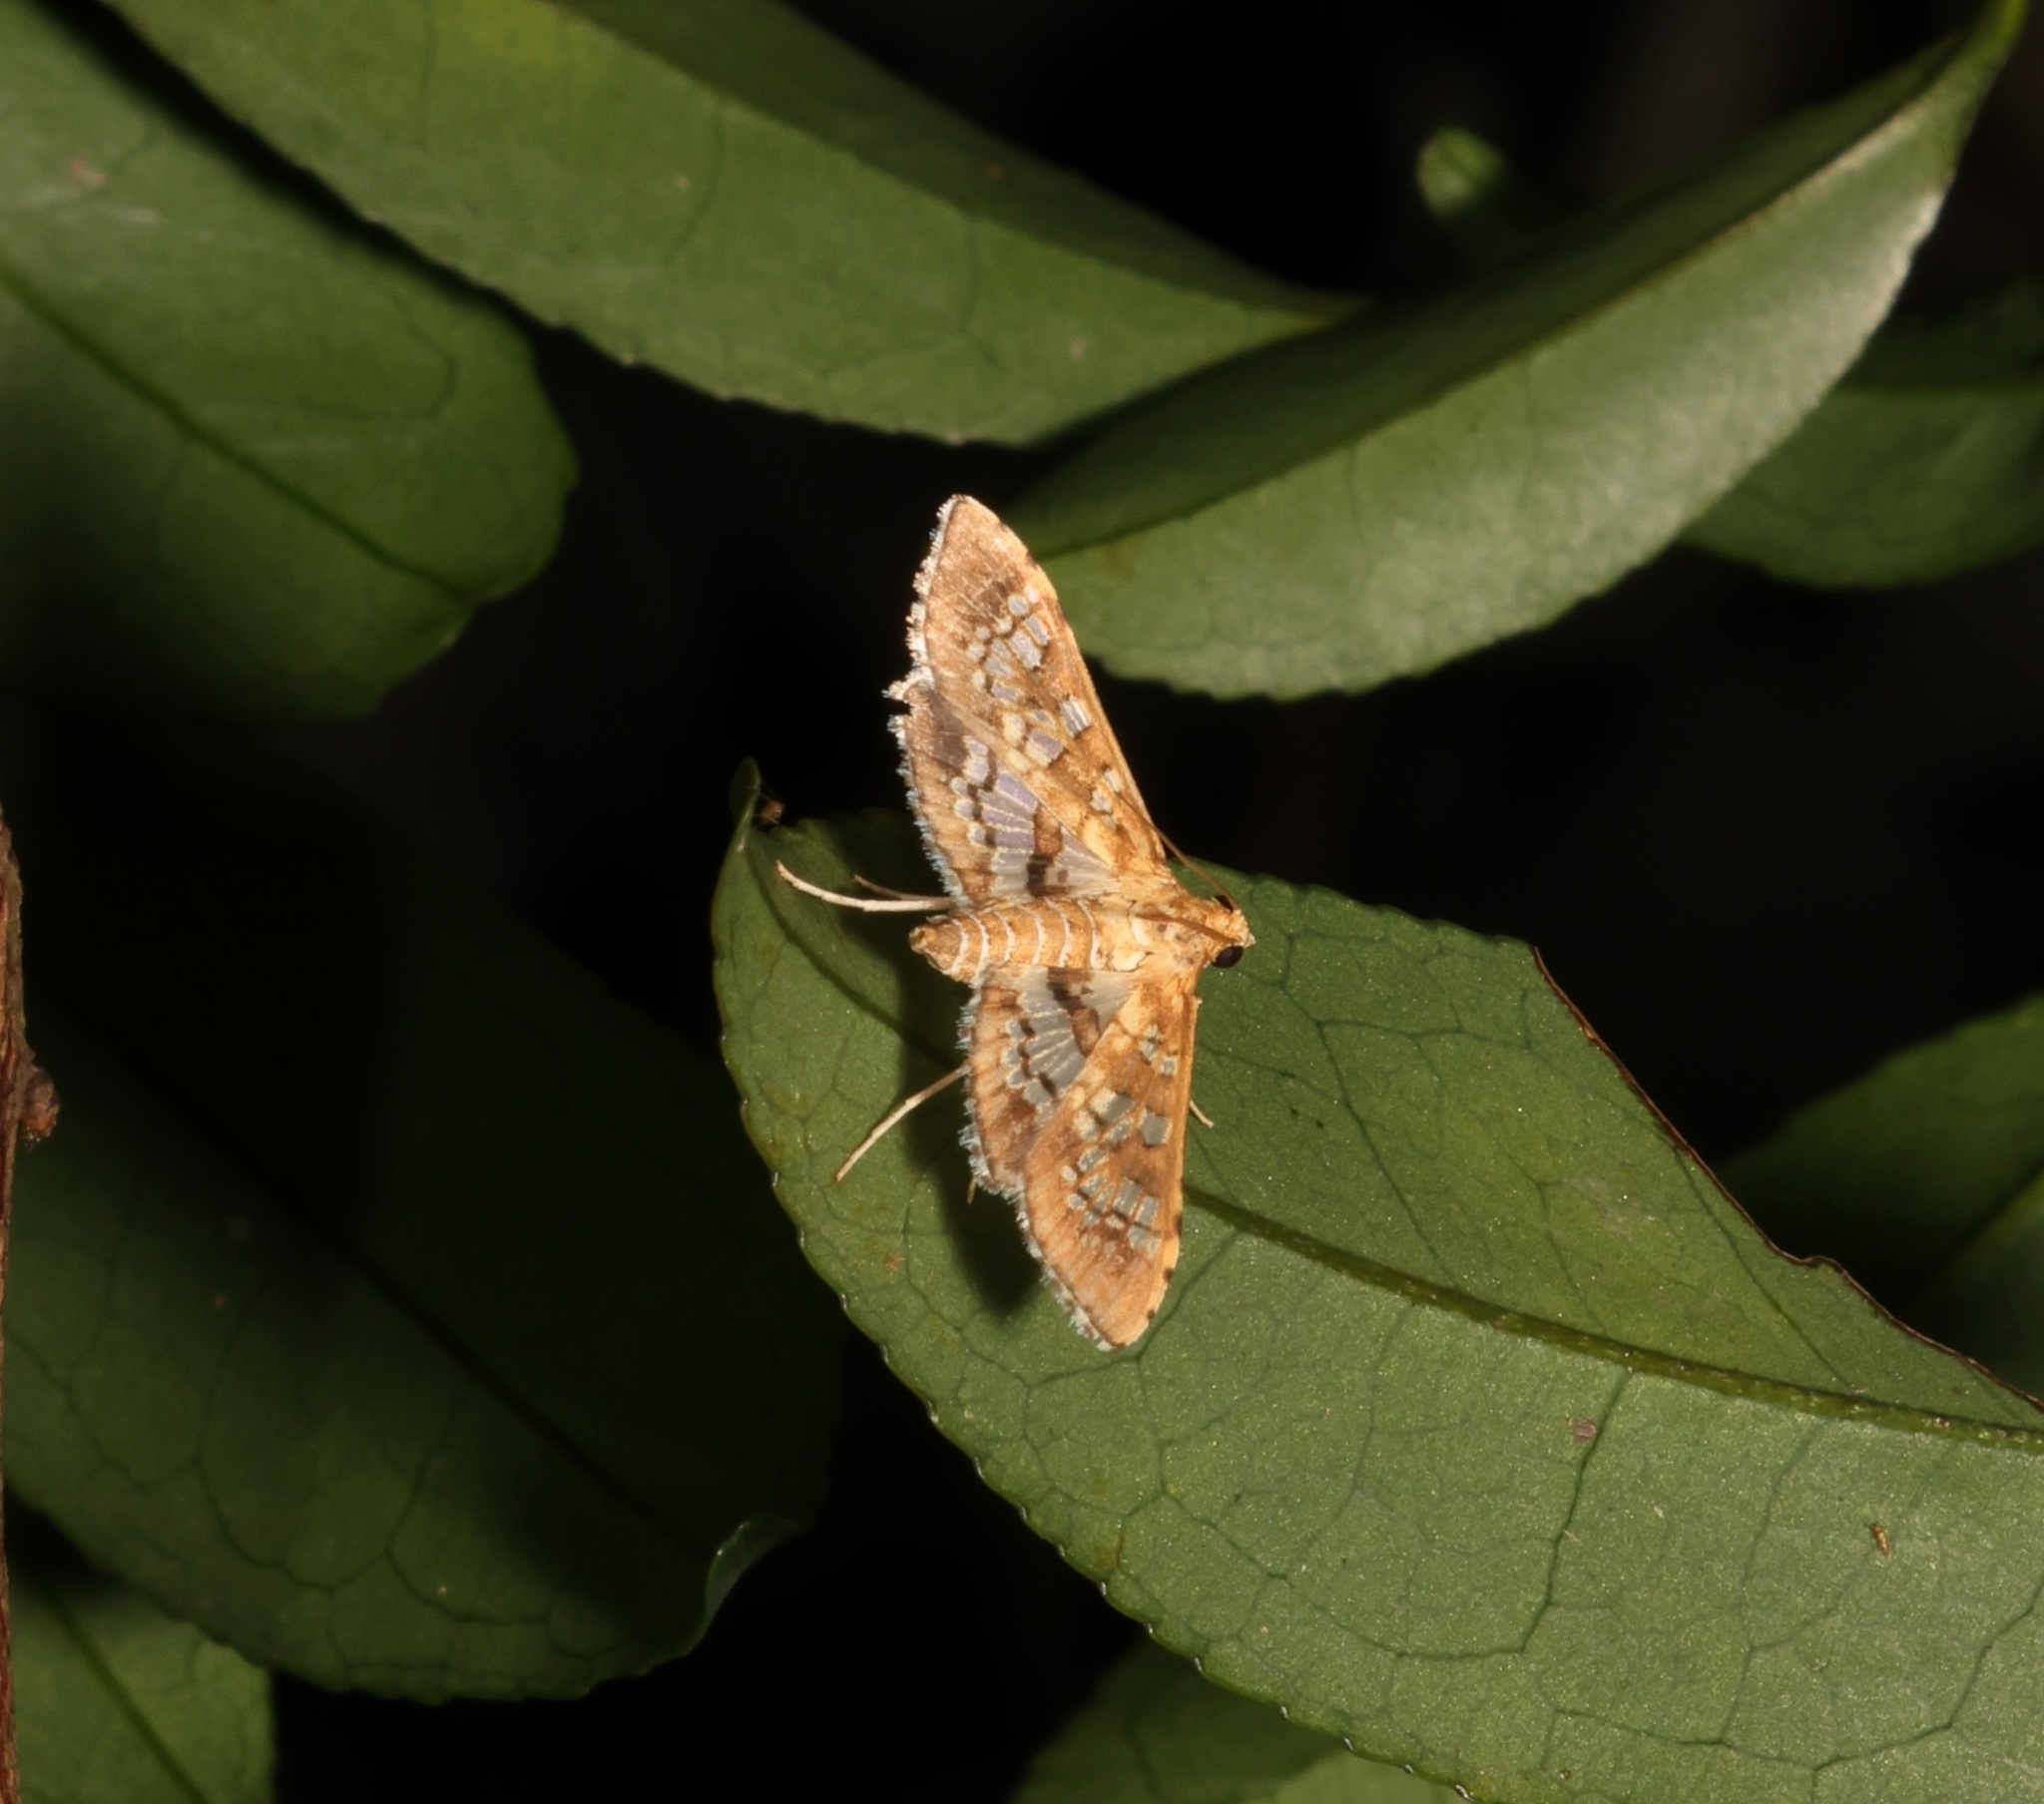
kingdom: Animalia
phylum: Arthropoda
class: Insecta
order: Lepidoptera
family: Crambidae
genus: Sameodes
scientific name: Sameodes cancellalis
